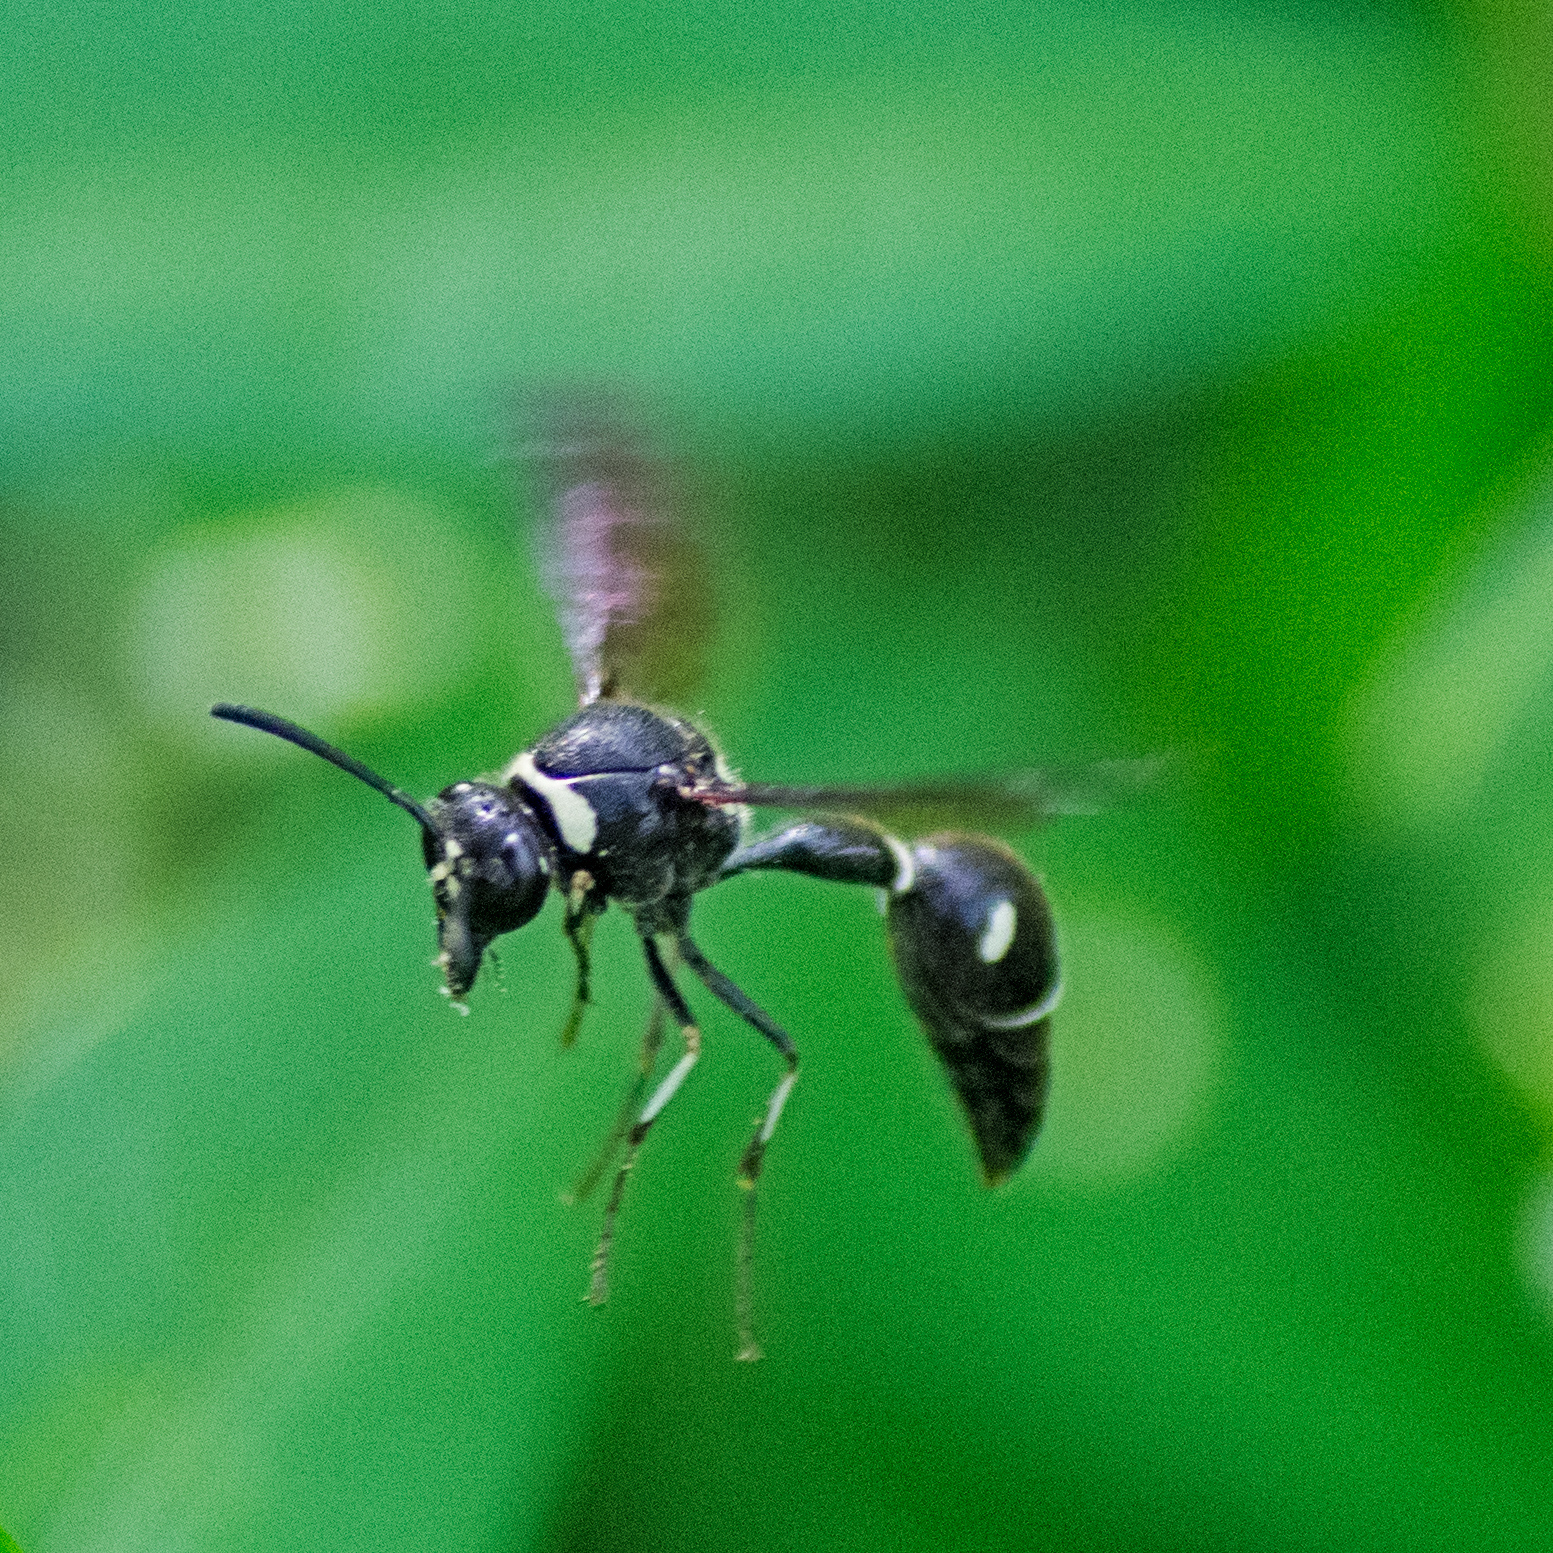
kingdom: Animalia
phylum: Arthropoda
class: Insecta
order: Hymenoptera
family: Vespidae
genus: Eumenes
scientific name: Eumenes fraternus
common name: Fraternal potter wasp
